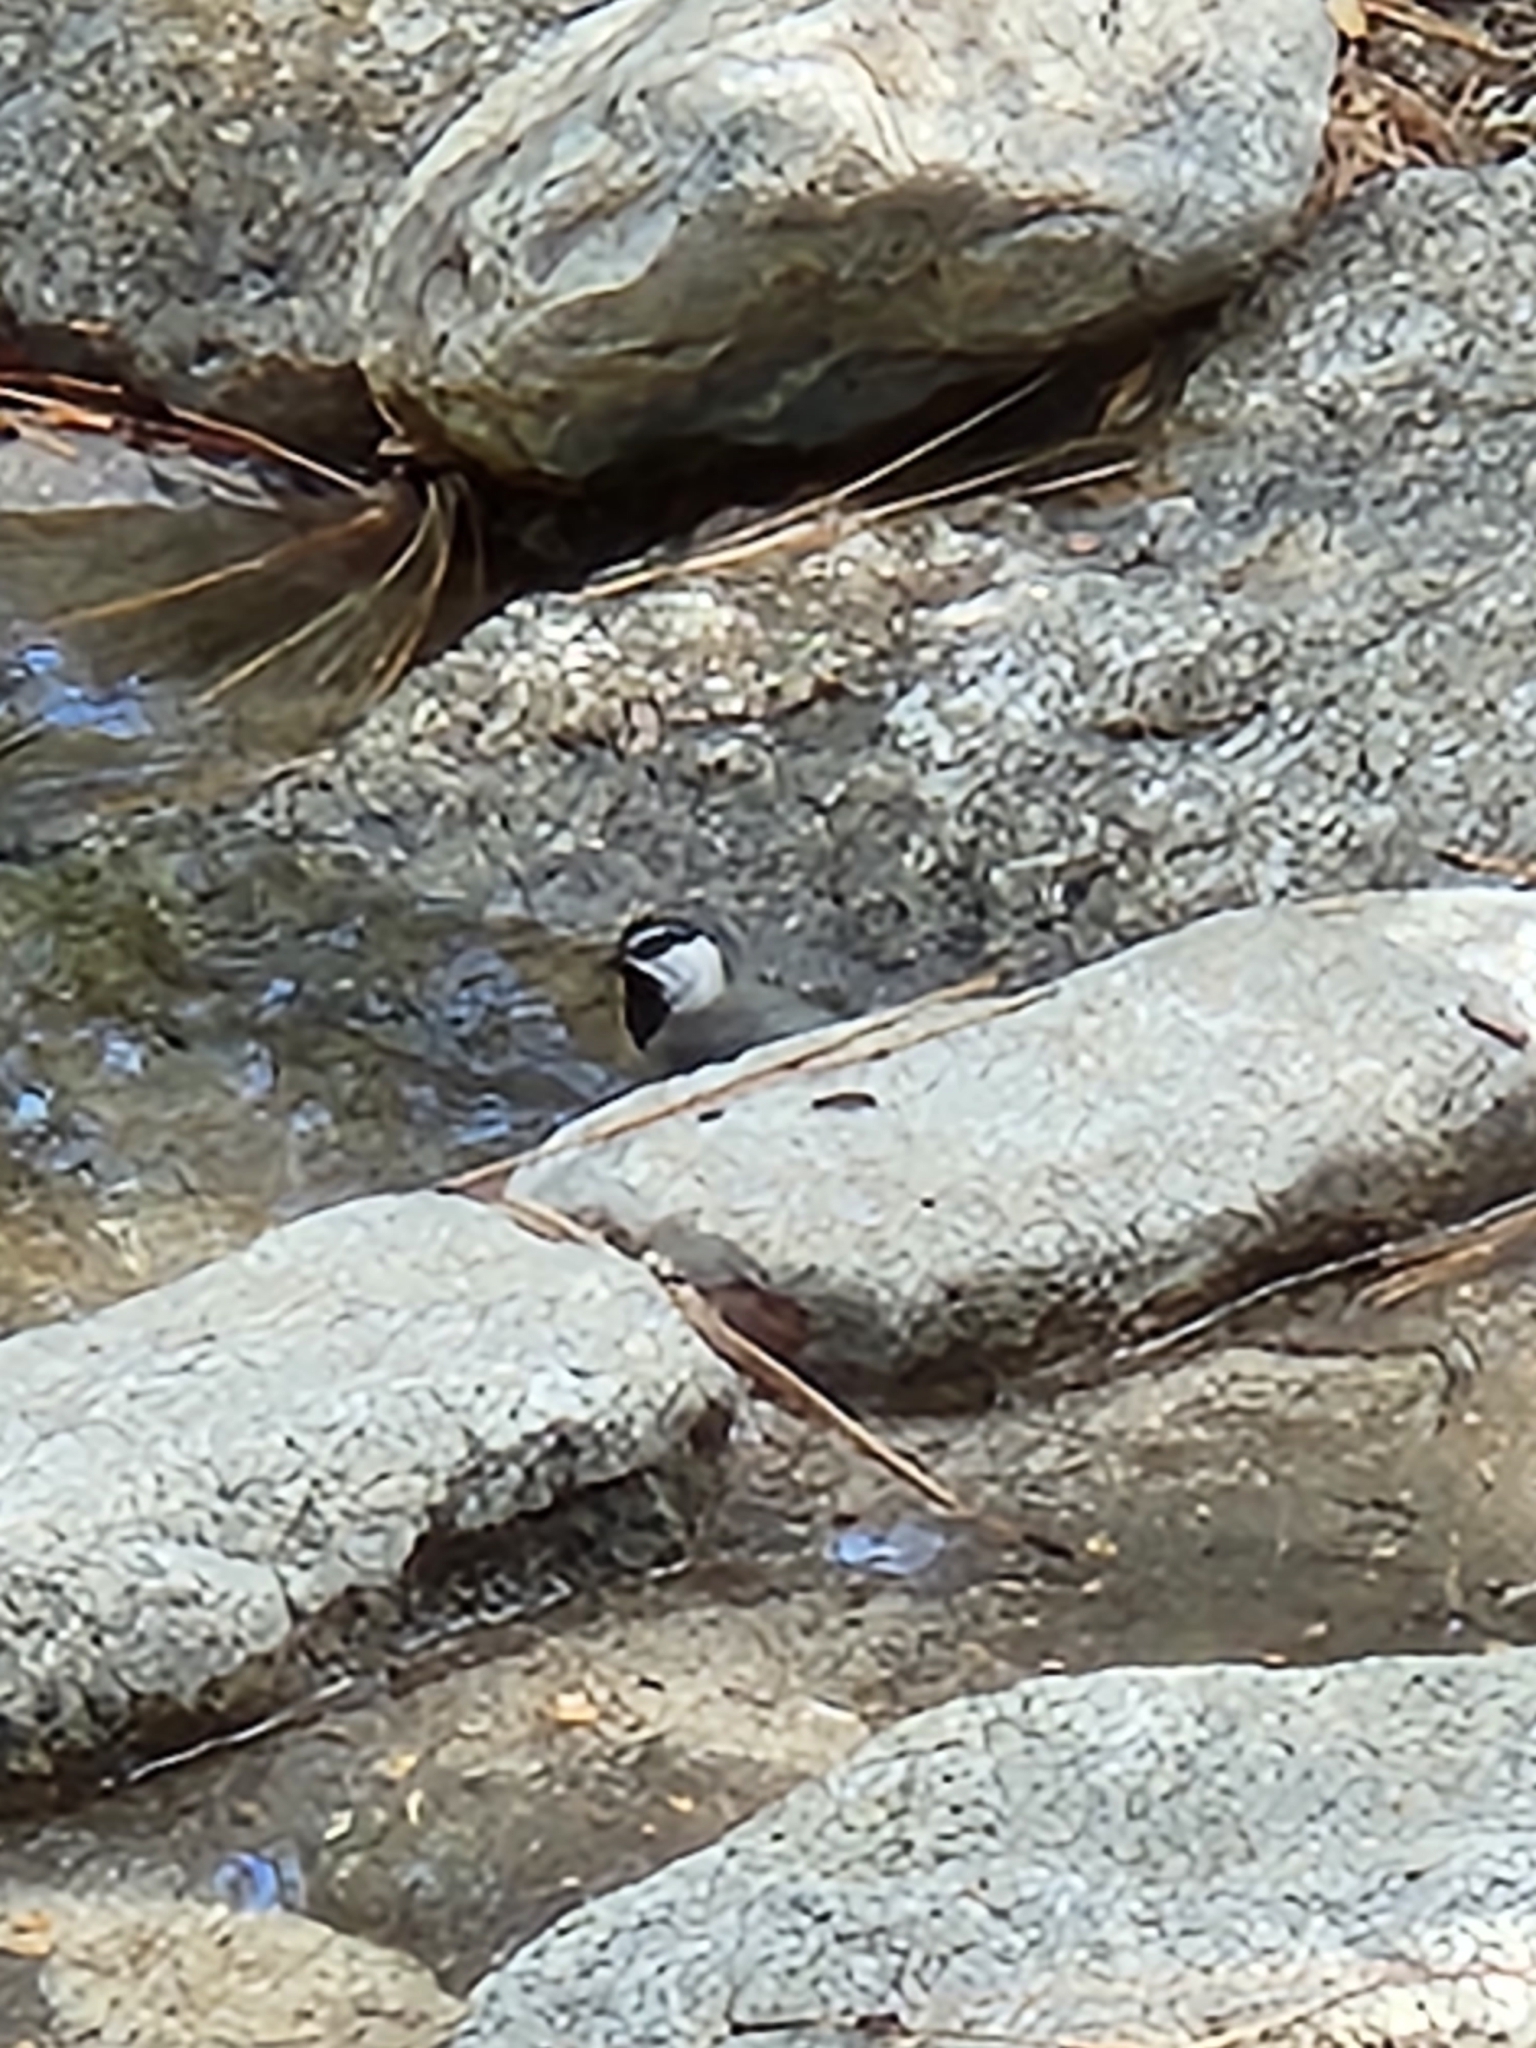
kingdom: Animalia
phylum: Chordata
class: Aves
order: Passeriformes
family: Paridae
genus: Poecile
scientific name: Poecile gambeli
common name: Mountain chickadee
